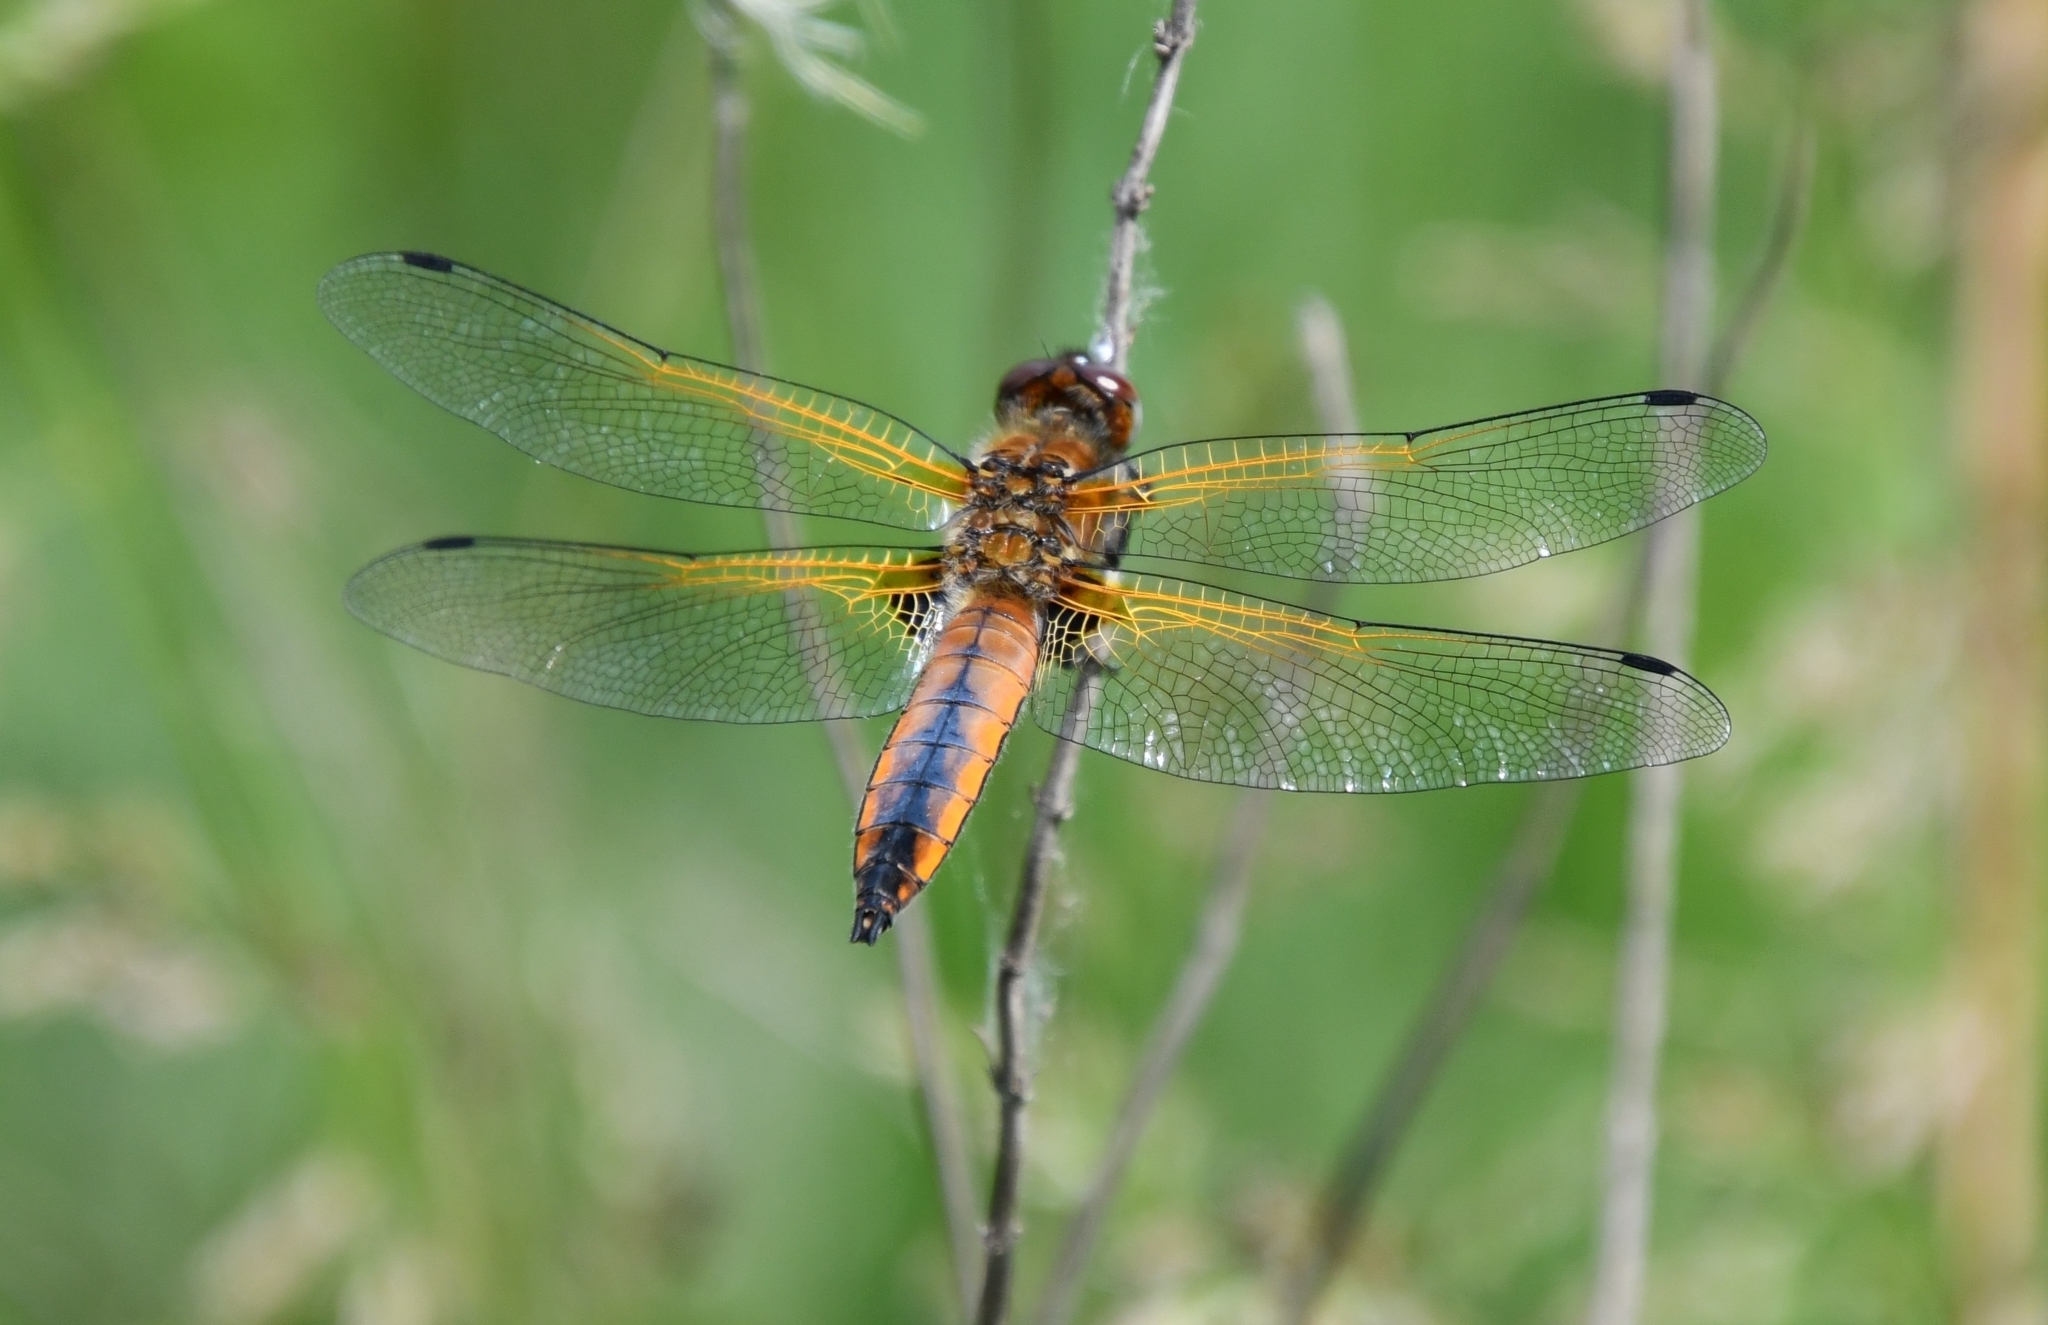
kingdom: Animalia
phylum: Arthropoda
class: Insecta
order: Odonata
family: Libellulidae
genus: Libellula
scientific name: Libellula fulva
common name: Blue chaser
